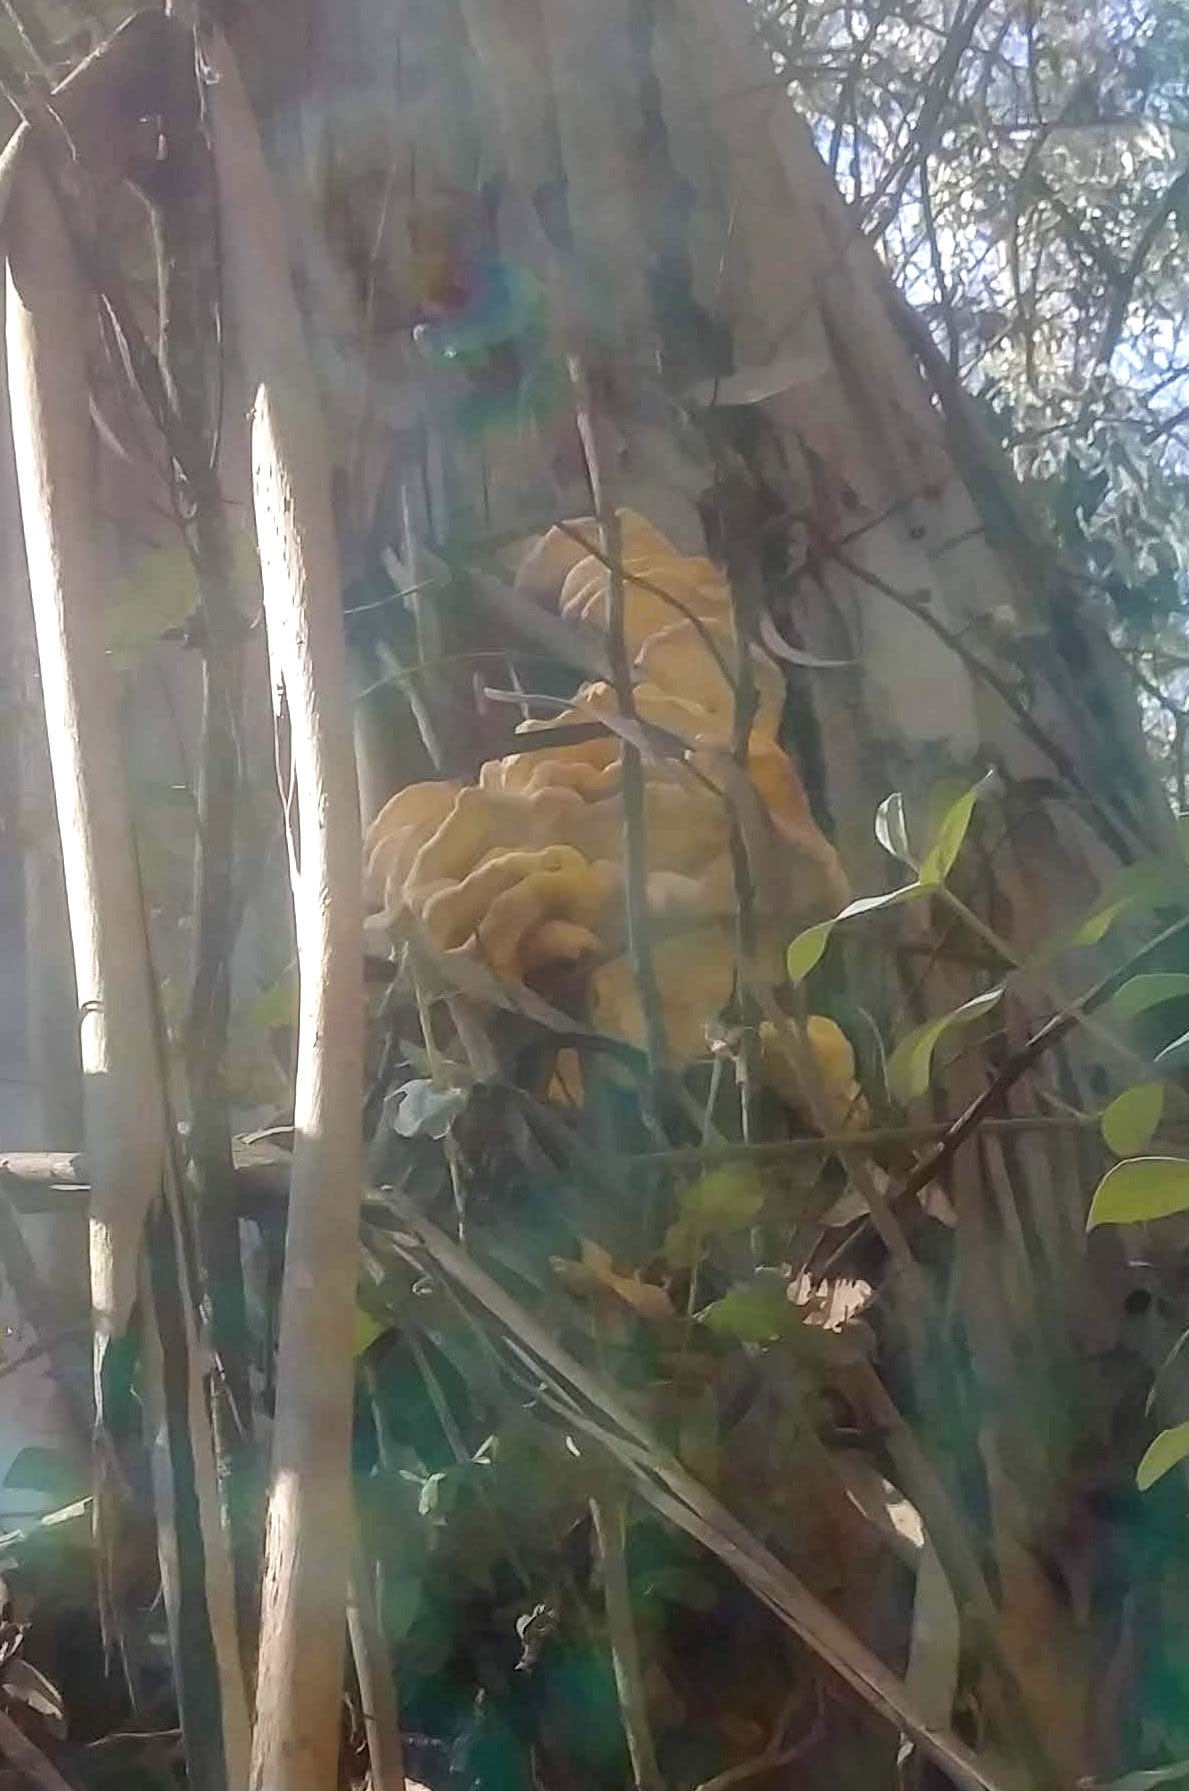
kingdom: Fungi
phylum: Basidiomycota
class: Agaricomycetes
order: Polyporales
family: Laetiporaceae
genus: Laetiporus
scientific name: Laetiporus gilbertsonii
